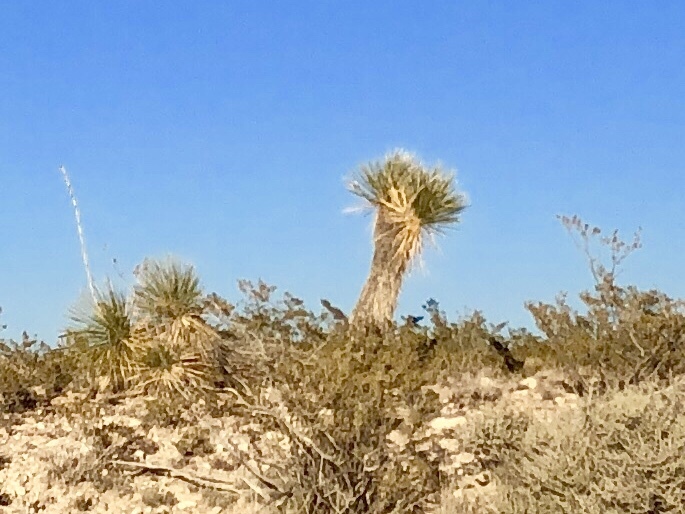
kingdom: Plantae
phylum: Tracheophyta
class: Liliopsida
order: Asparagales
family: Asparagaceae
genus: Yucca
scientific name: Yucca elata
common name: Palmella
